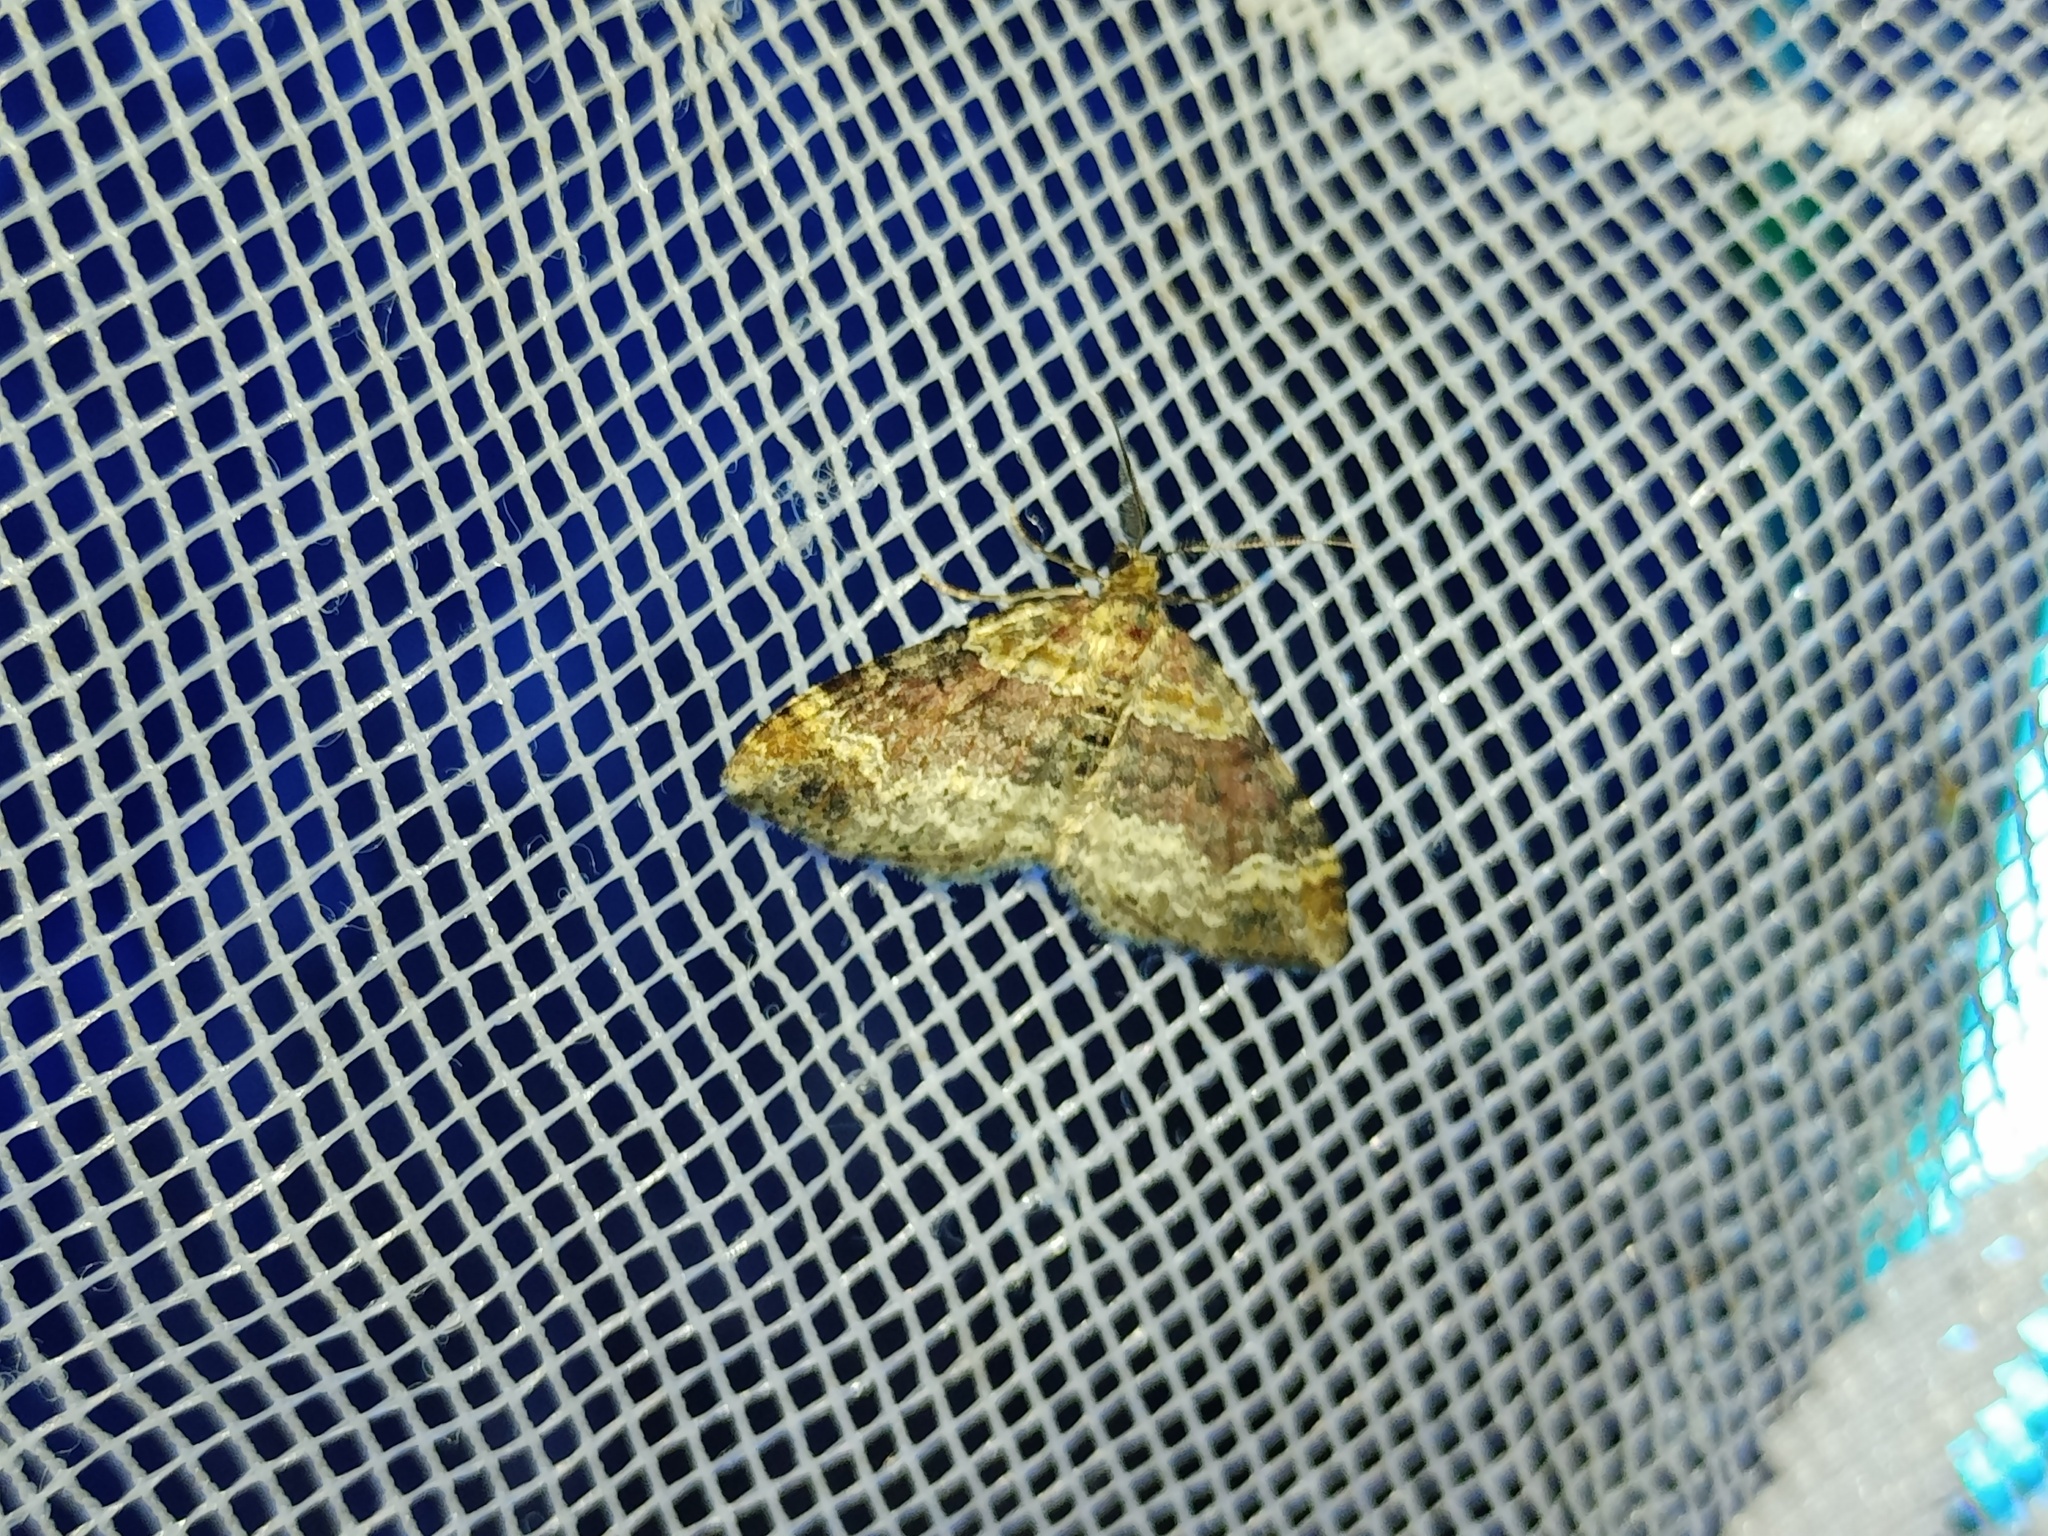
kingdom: Animalia
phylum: Arthropoda
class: Insecta
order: Lepidoptera
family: Geometridae
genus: Xanthorhoe
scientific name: Xanthorhoe spadicearia
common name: Red twin-spot carpet
